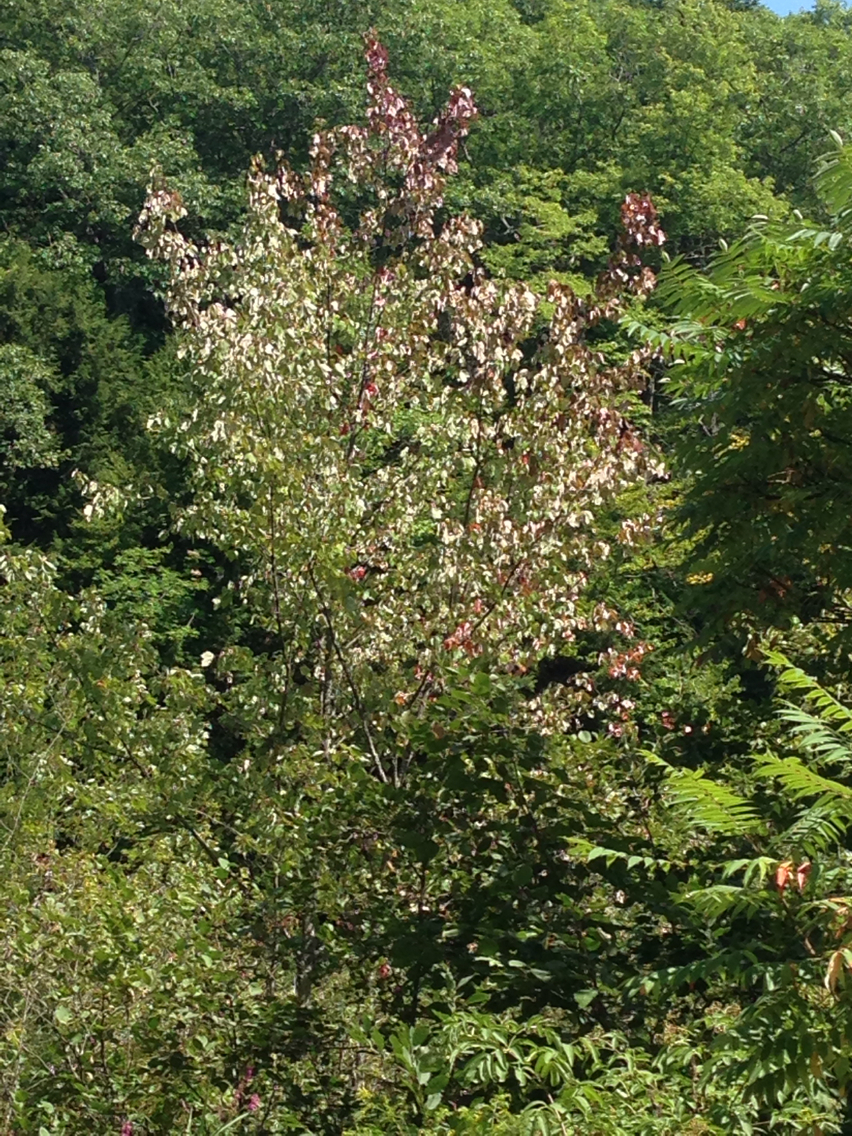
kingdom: Plantae
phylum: Tracheophyta
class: Magnoliopsida
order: Sapindales
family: Sapindaceae
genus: Acer
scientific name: Acer rubrum
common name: Red maple
